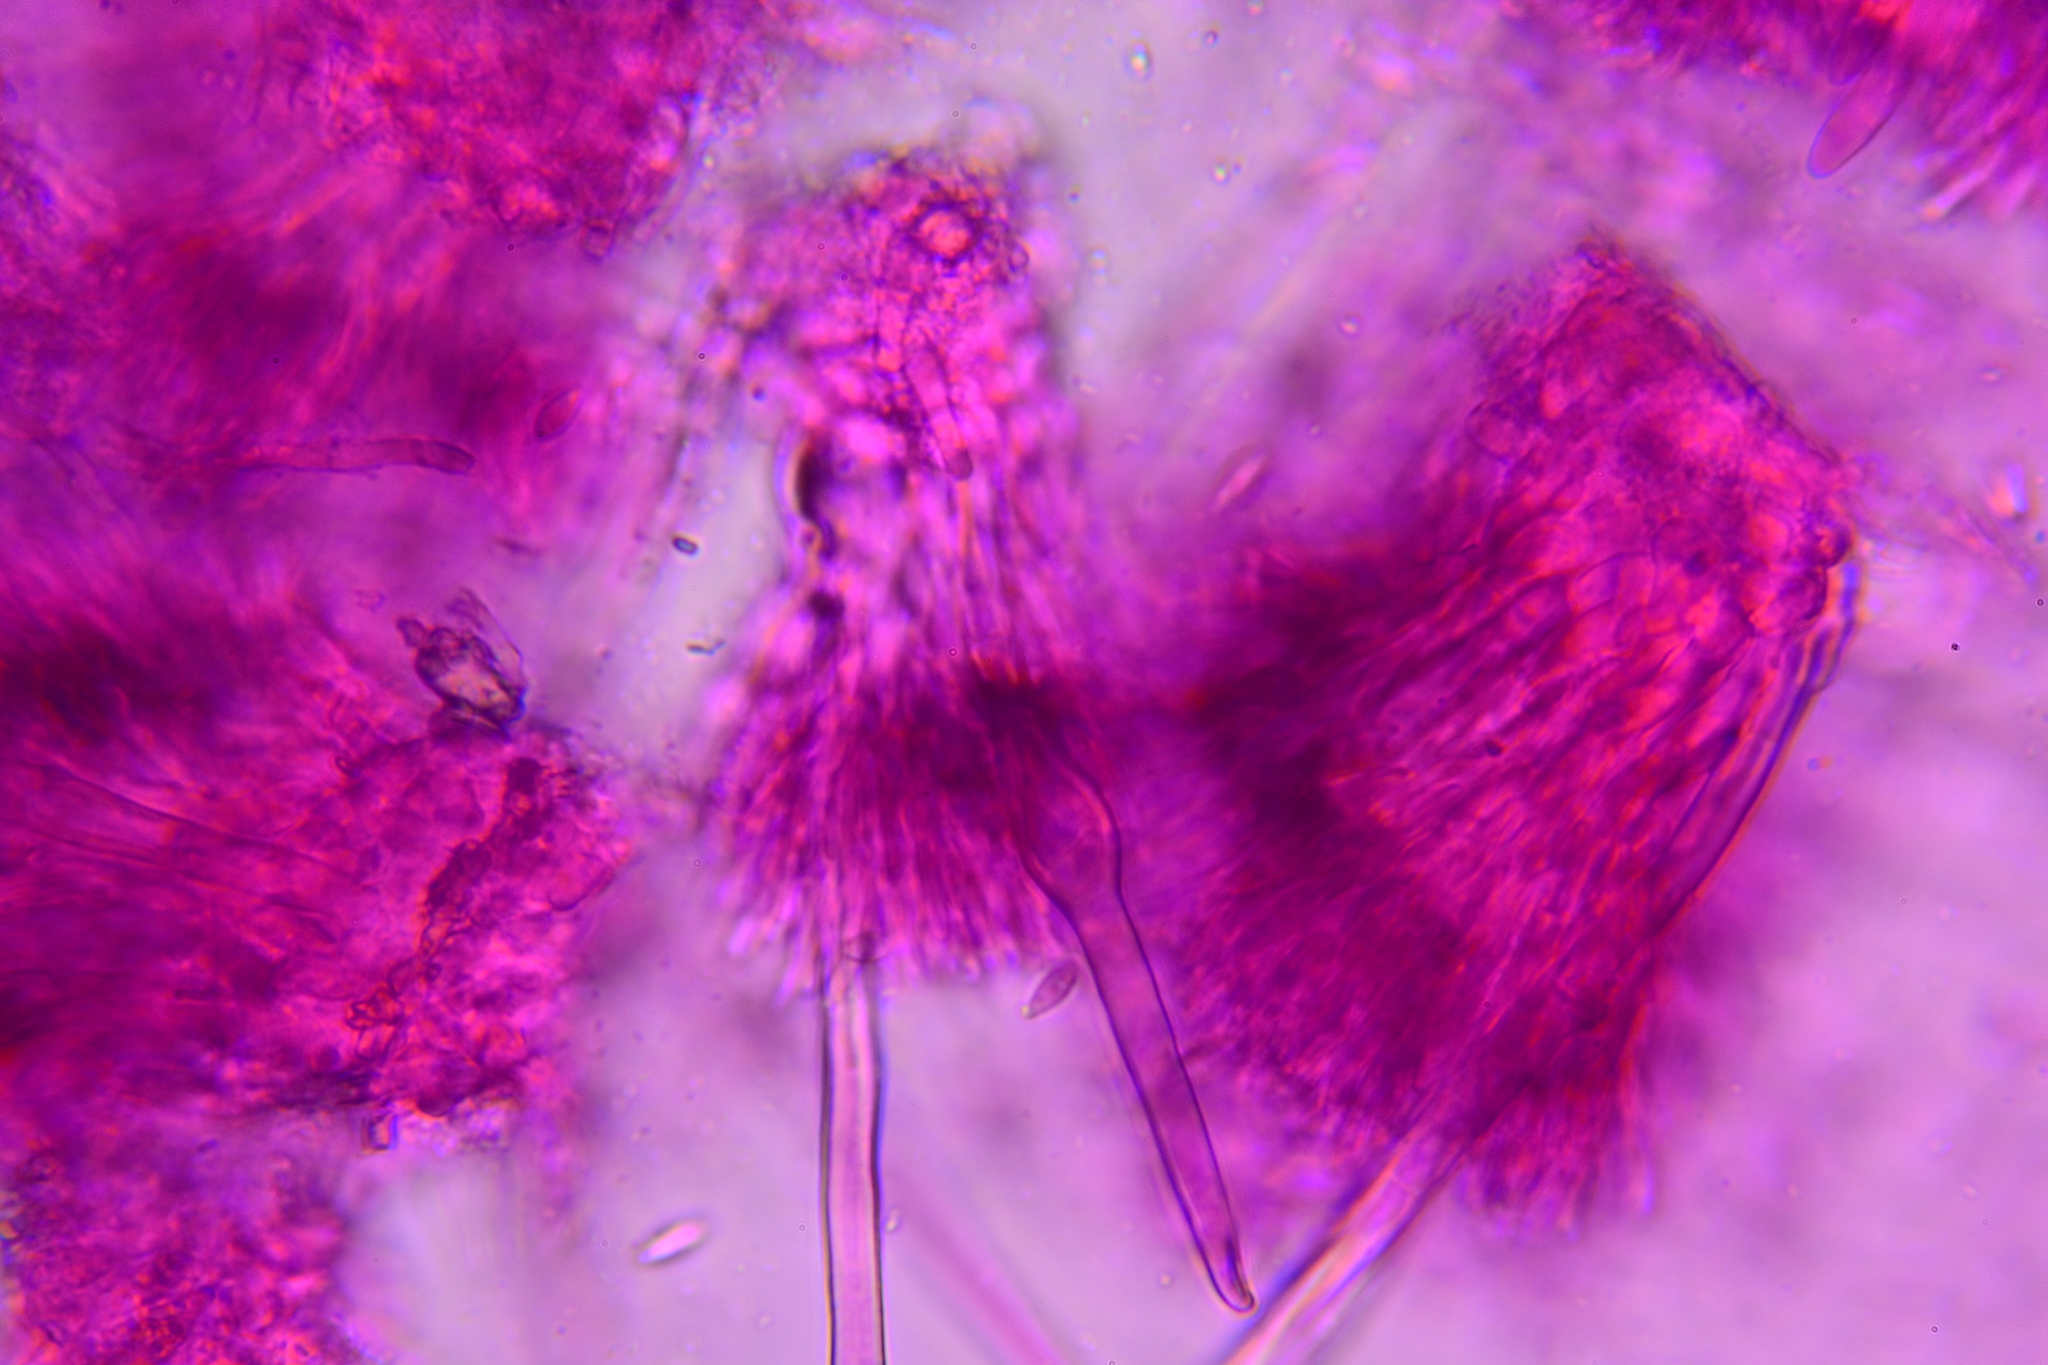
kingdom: Fungi
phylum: Ascomycota
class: Sordariomycetes
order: Hypocreales
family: Nectriaceae
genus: Pseudonectria
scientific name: Pseudonectria buxi
